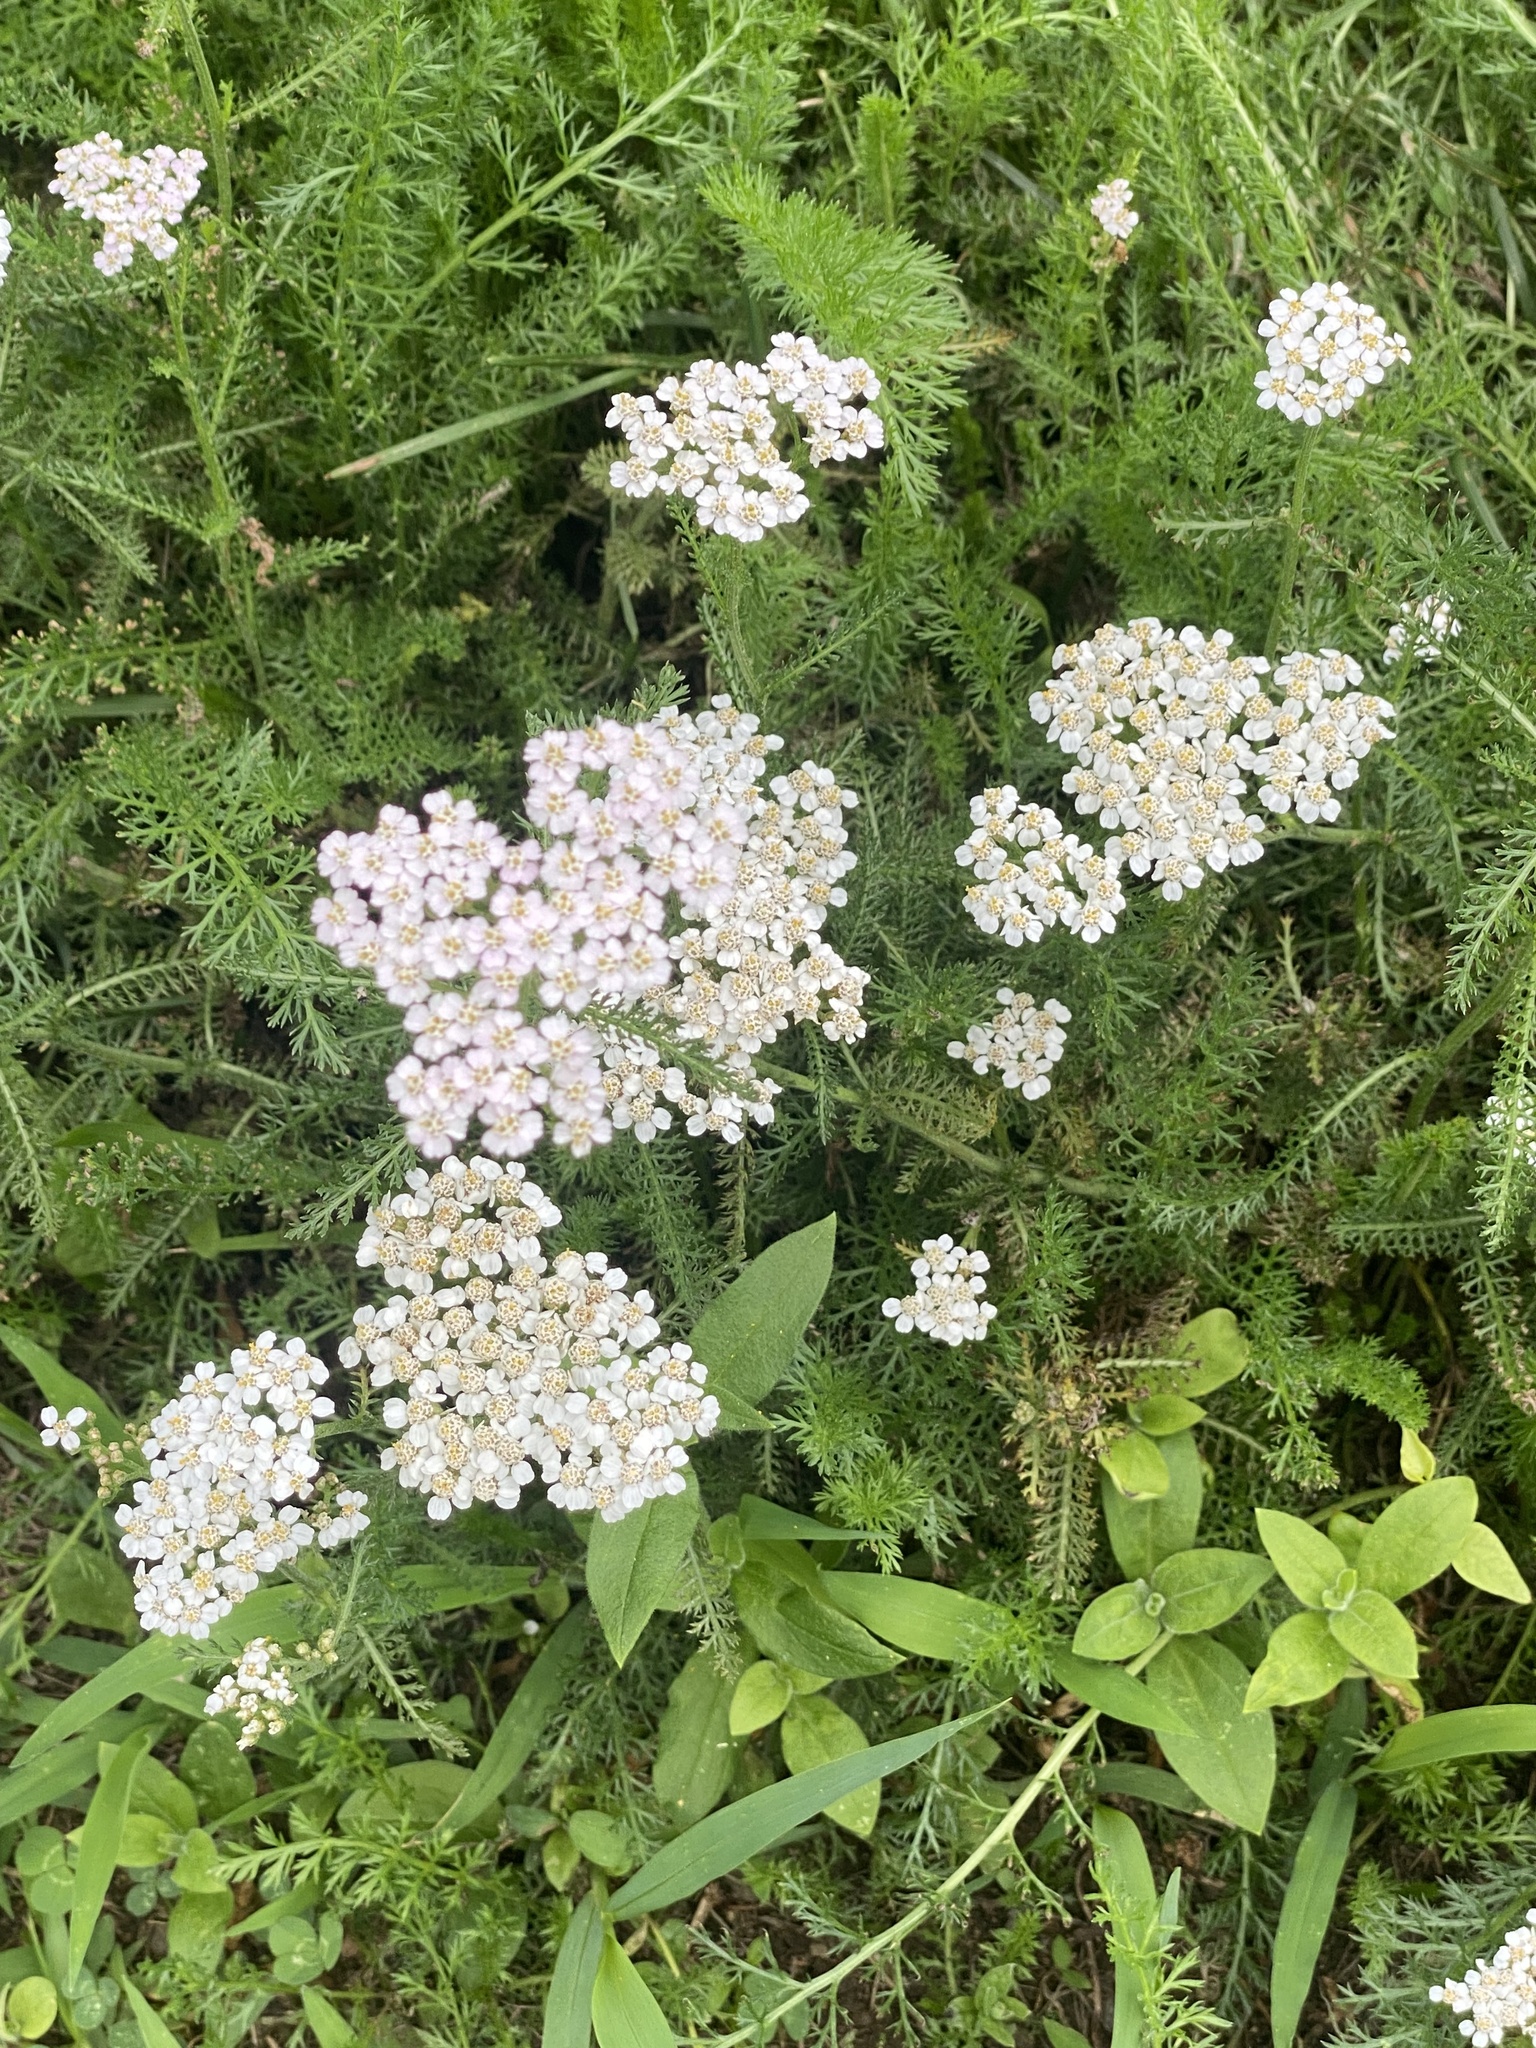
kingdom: Plantae
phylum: Tracheophyta
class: Magnoliopsida
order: Asterales
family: Asteraceae
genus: Achillea
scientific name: Achillea millefolium
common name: Yarrow
